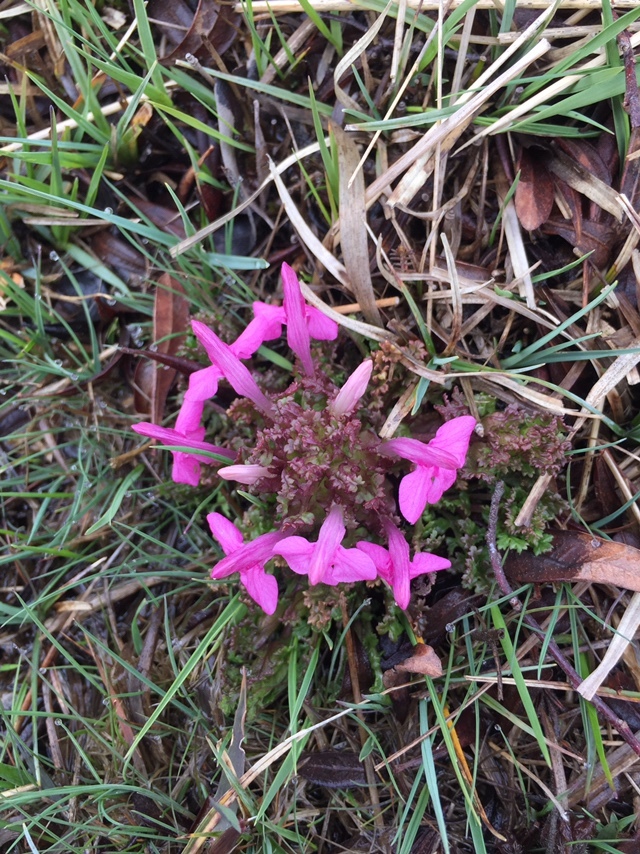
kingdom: Plantae
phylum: Tracheophyta
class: Magnoliopsida
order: Lamiales
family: Orobanchaceae
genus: Pedicularis
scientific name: Pedicularis sylvatica
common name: Lousewort
